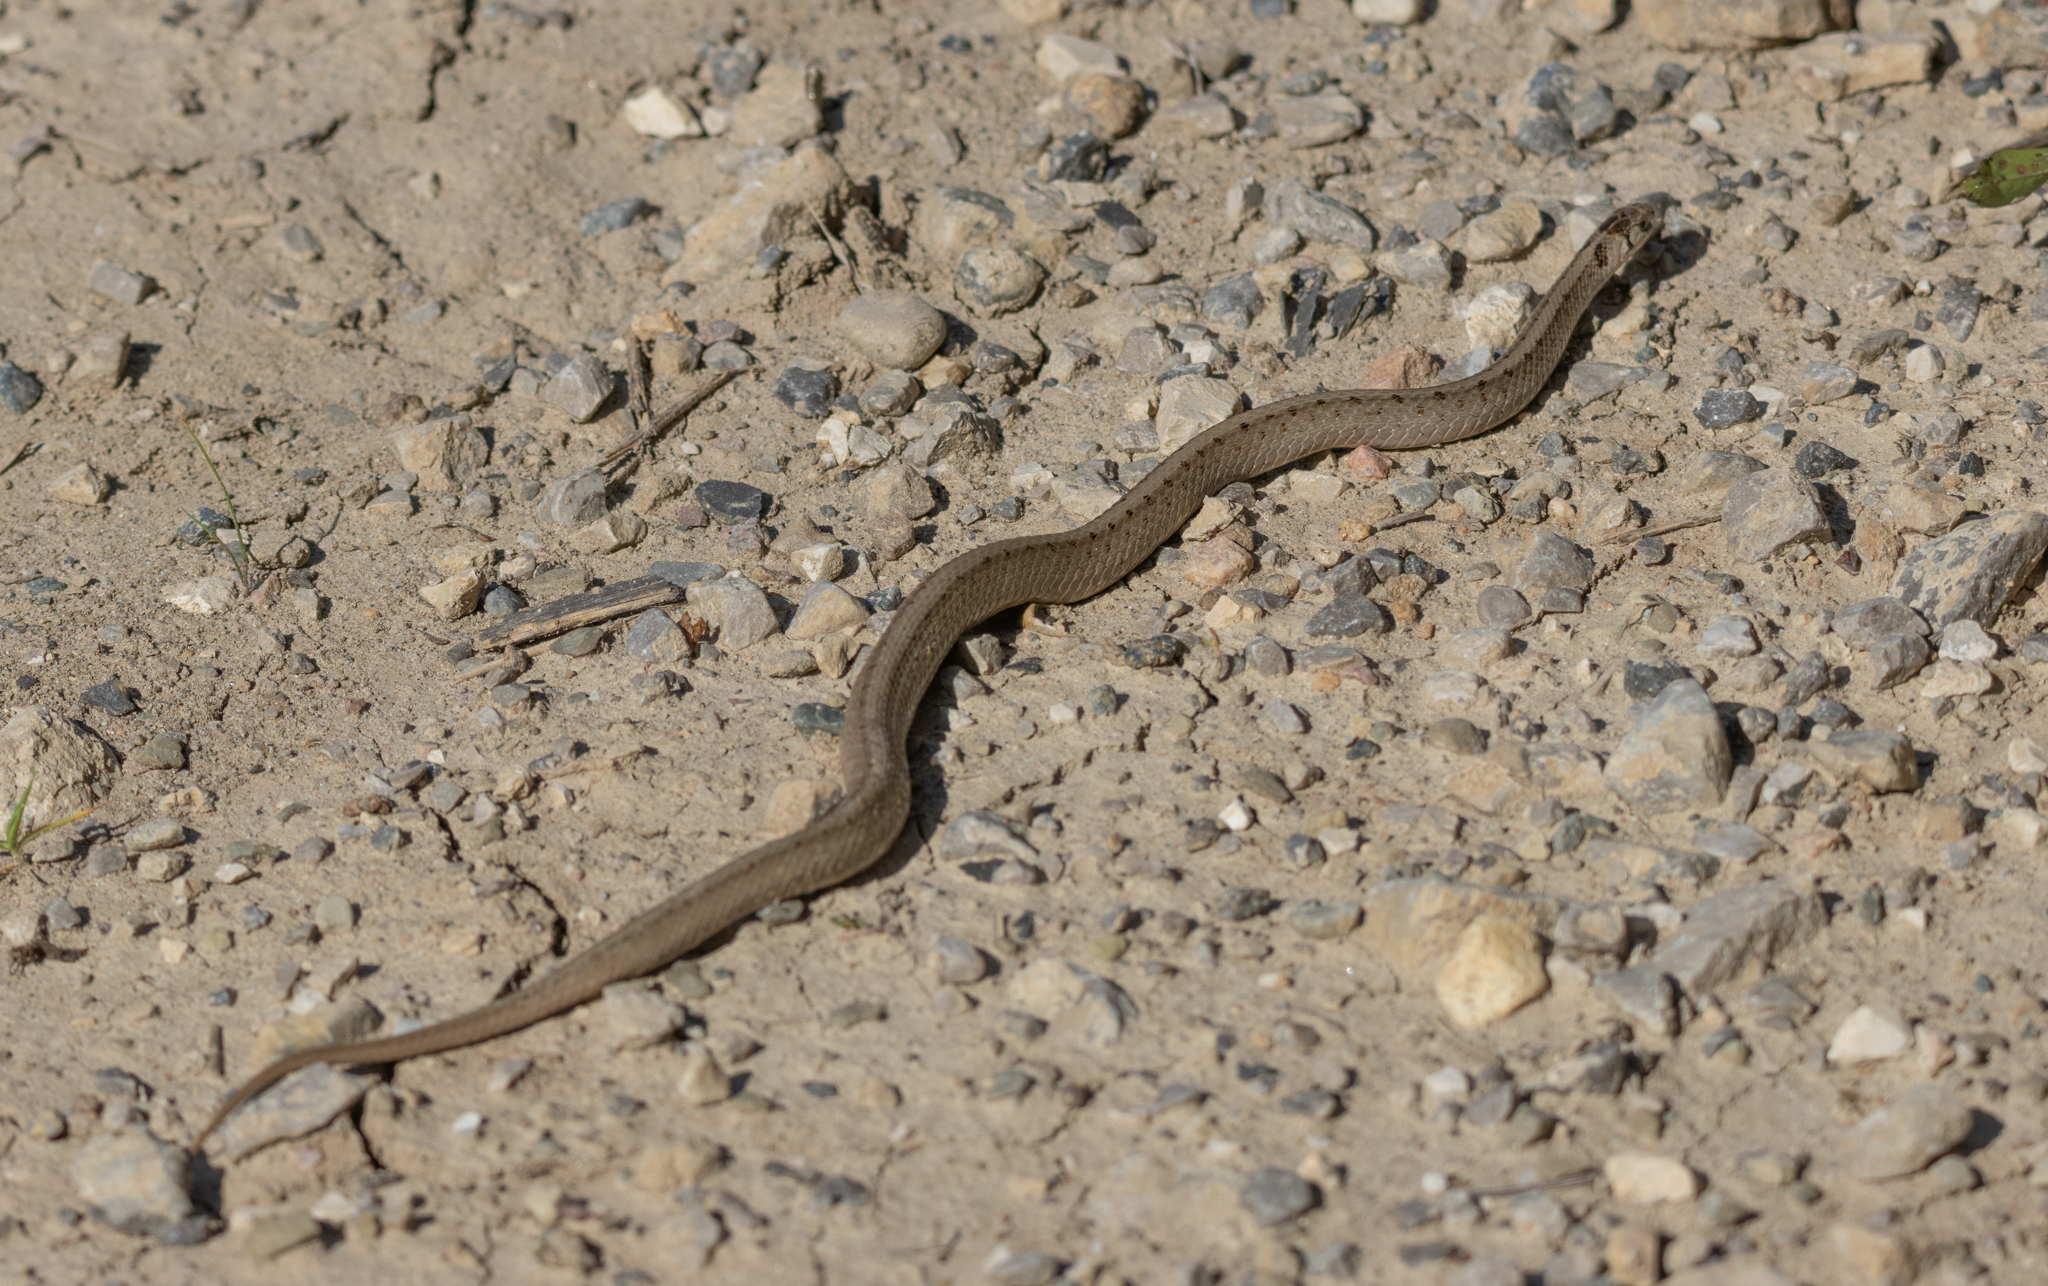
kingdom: Animalia
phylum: Chordata
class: Squamata
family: Colubridae
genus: Storeria
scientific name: Storeria dekayi
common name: (dekay’s) brown snake
